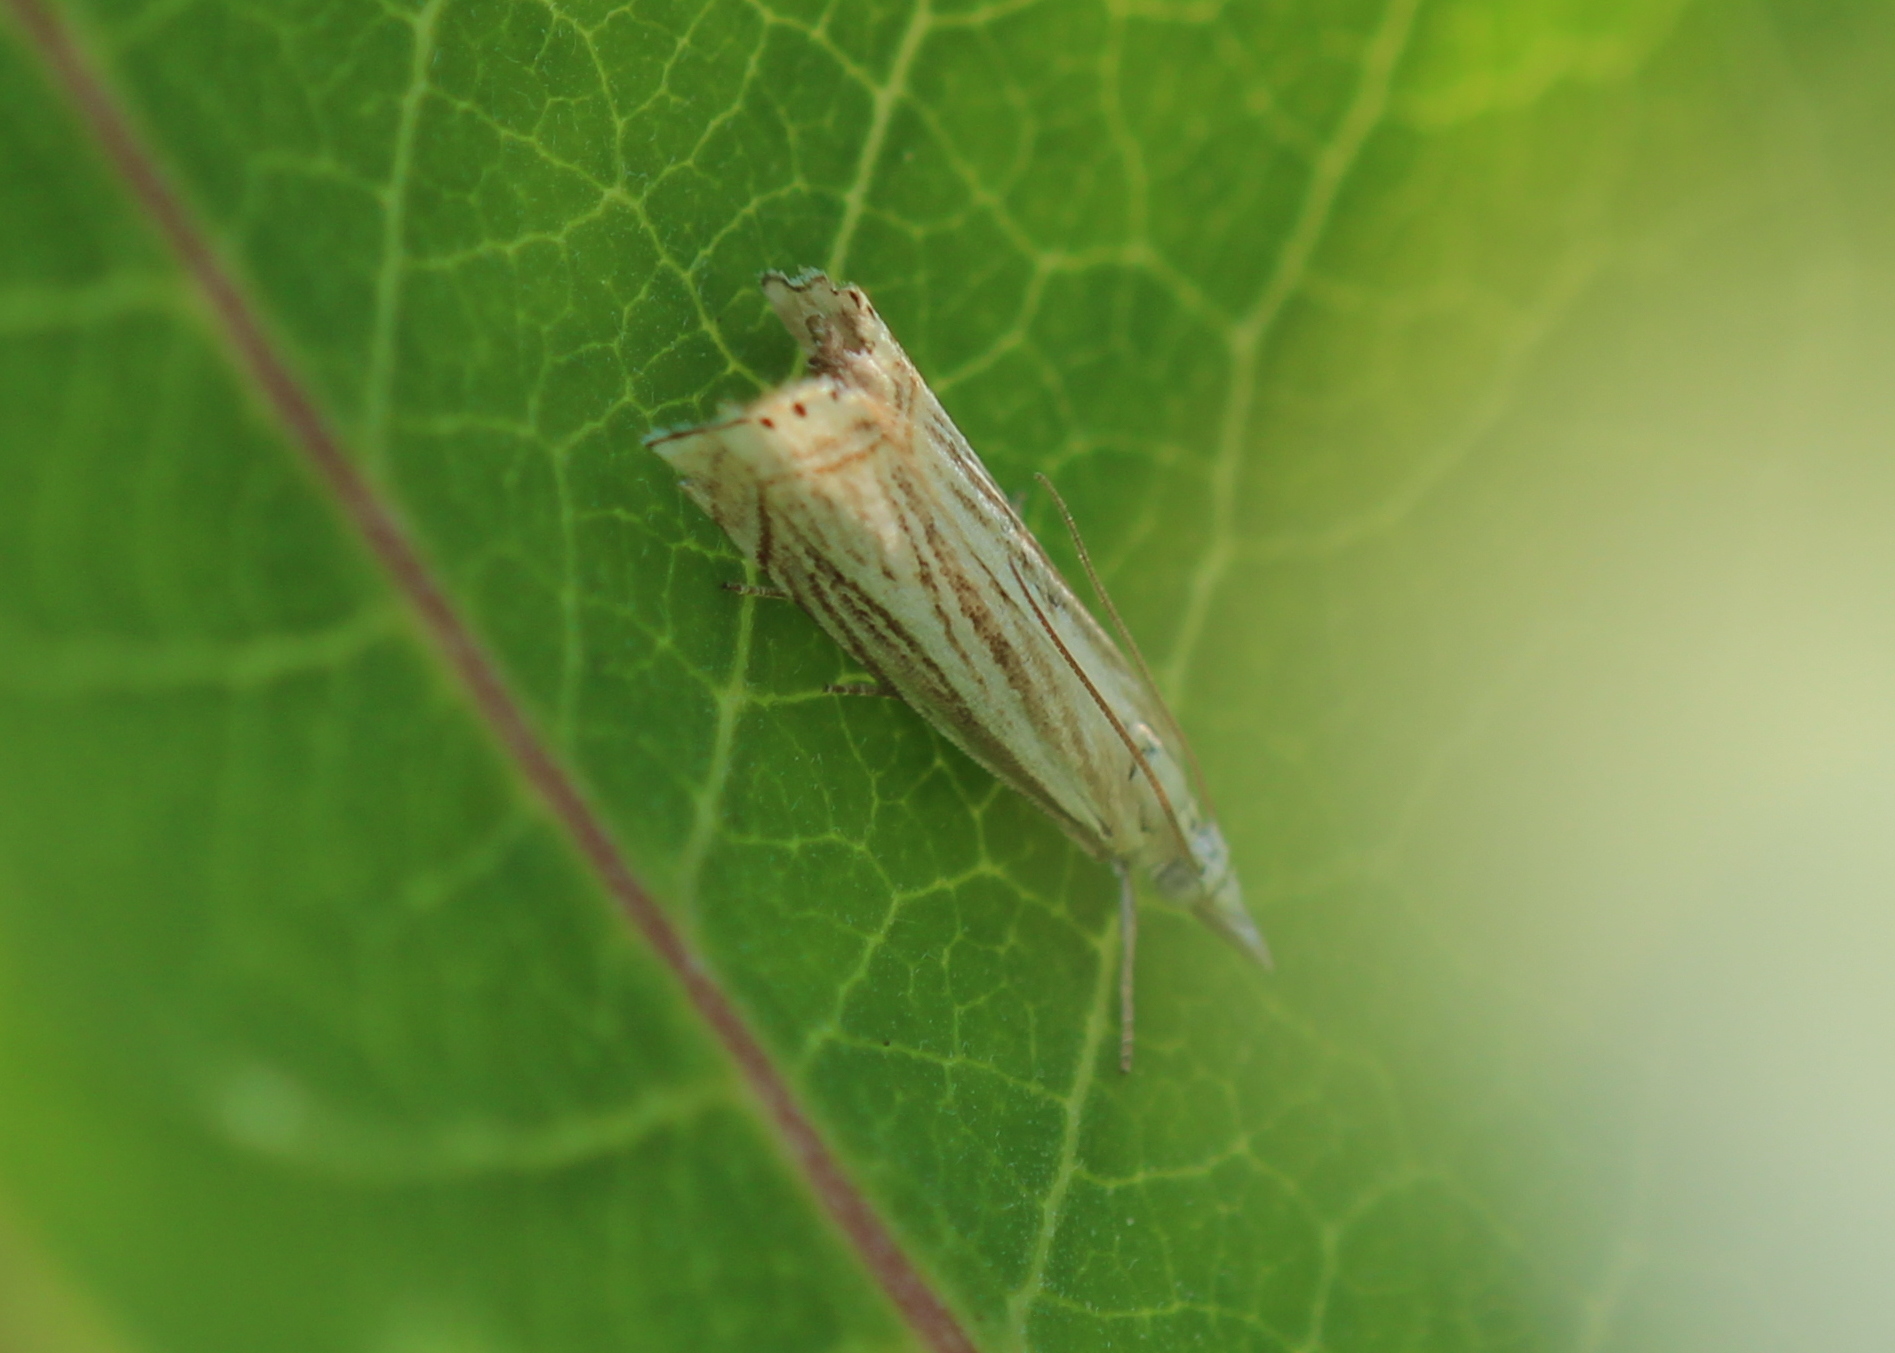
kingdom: Animalia
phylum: Arthropoda
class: Insecta
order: Lepidoptera
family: Crambidae
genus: Chrysoteuchia
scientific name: Chrysoteuchia topiarius
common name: Topiary grass-veneer
